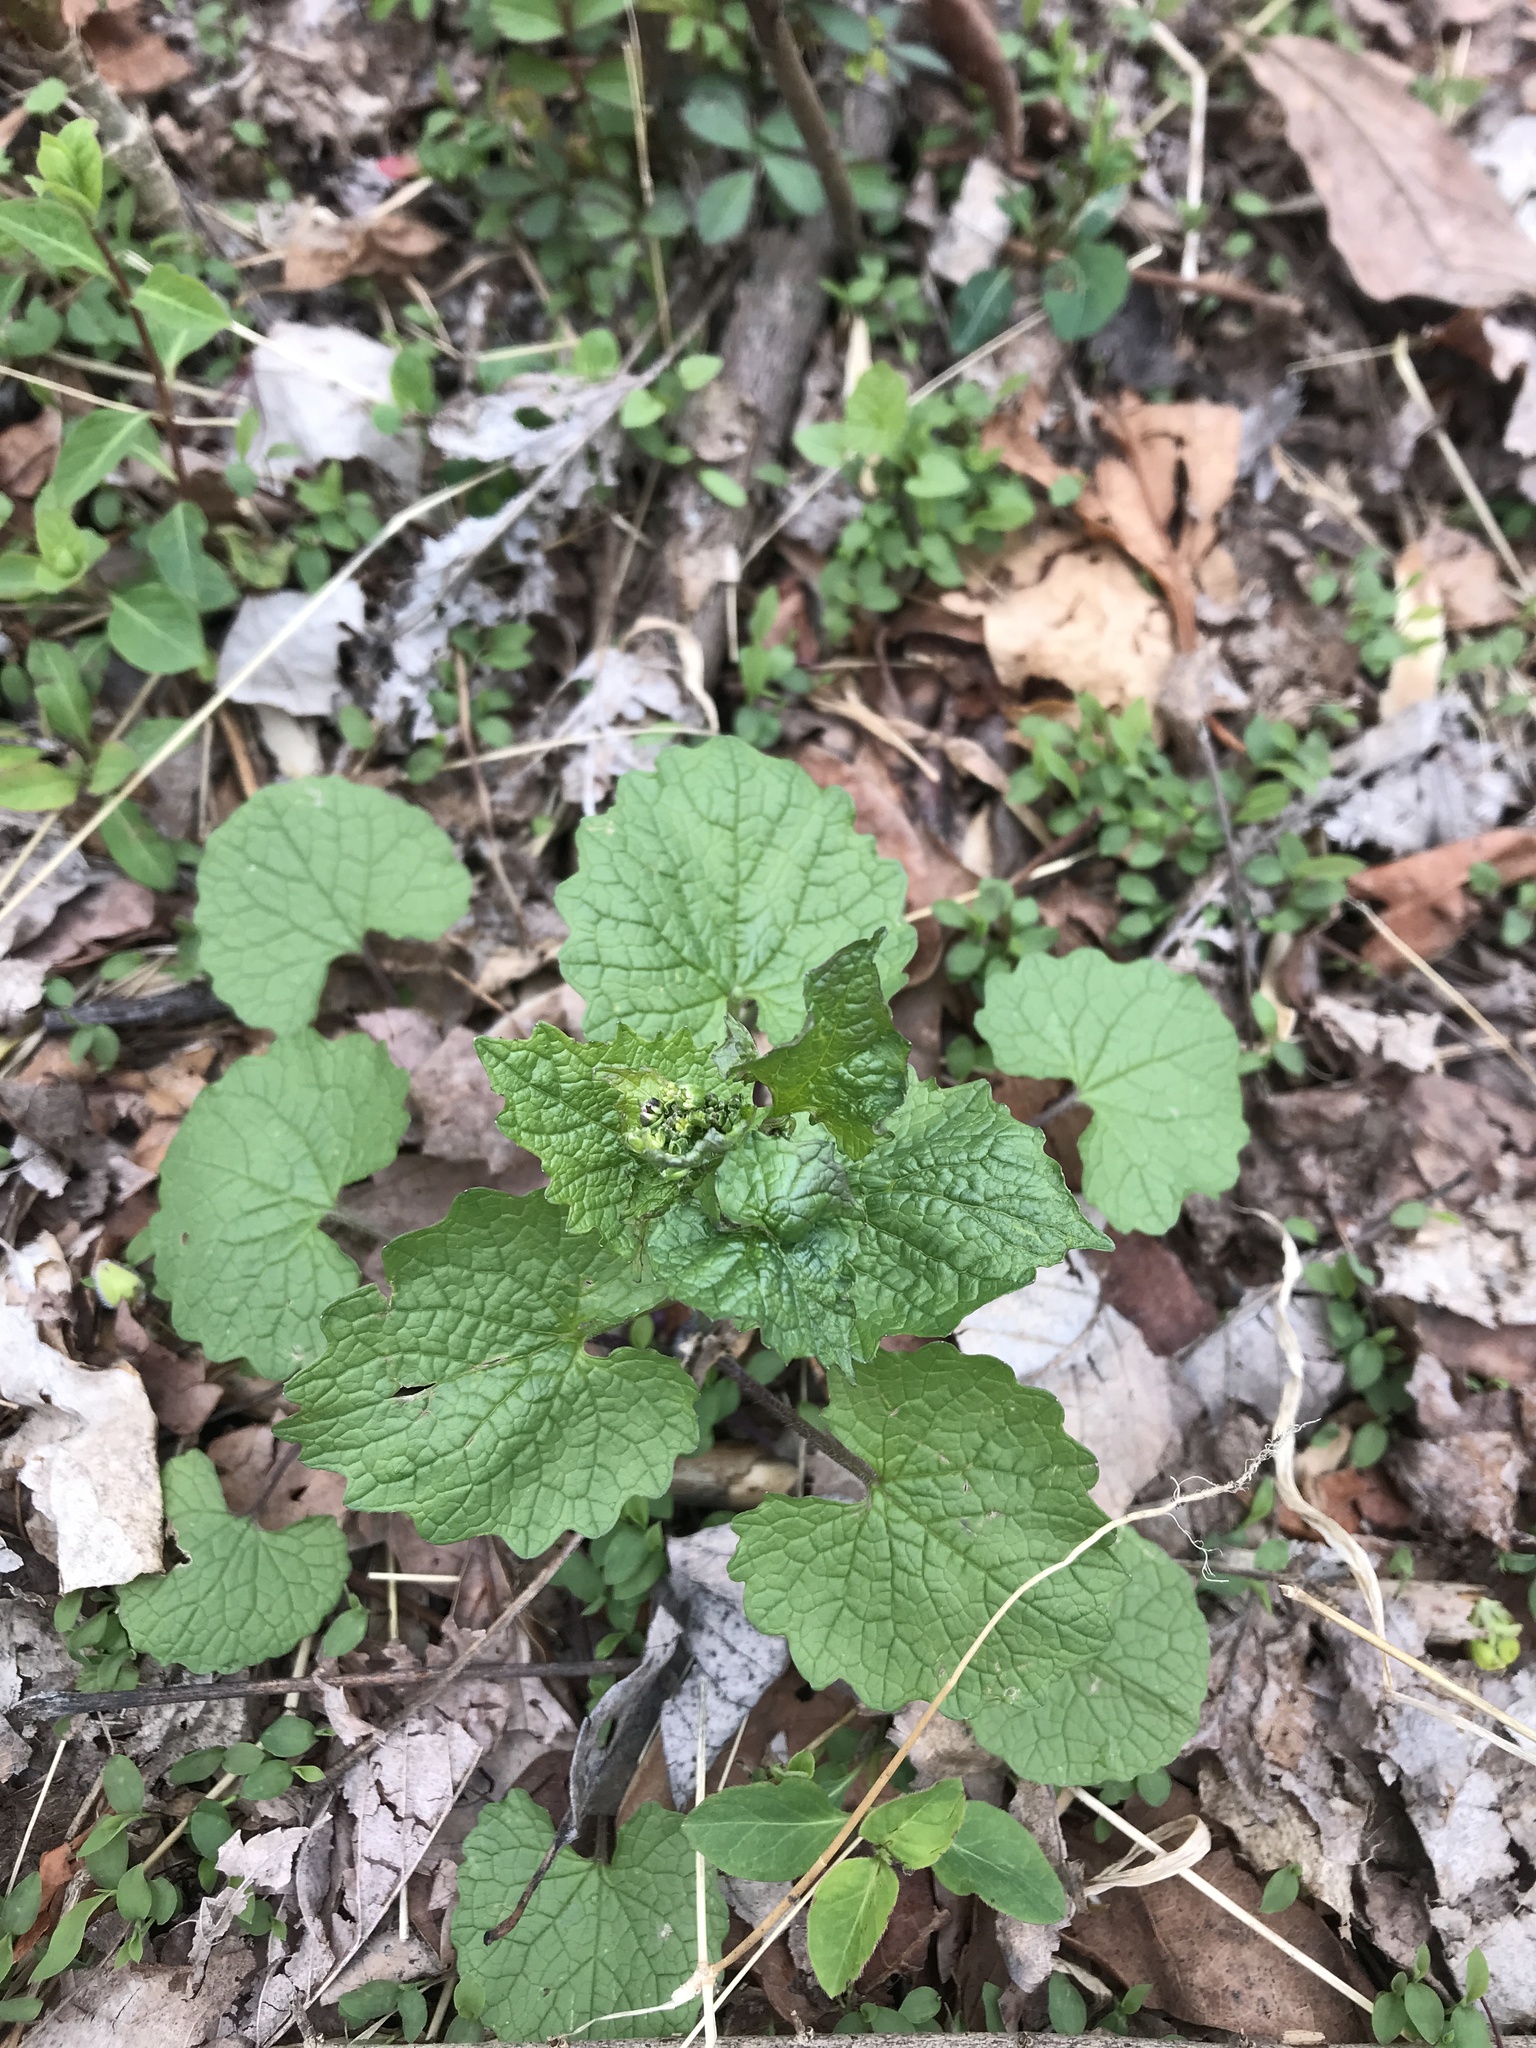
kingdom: Plantae
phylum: Tracheophyta
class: Magnoliopsida
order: Brassicales
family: Brassicaceae
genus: Alliaria
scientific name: Alliaria petiolata
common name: Garlic mustard
